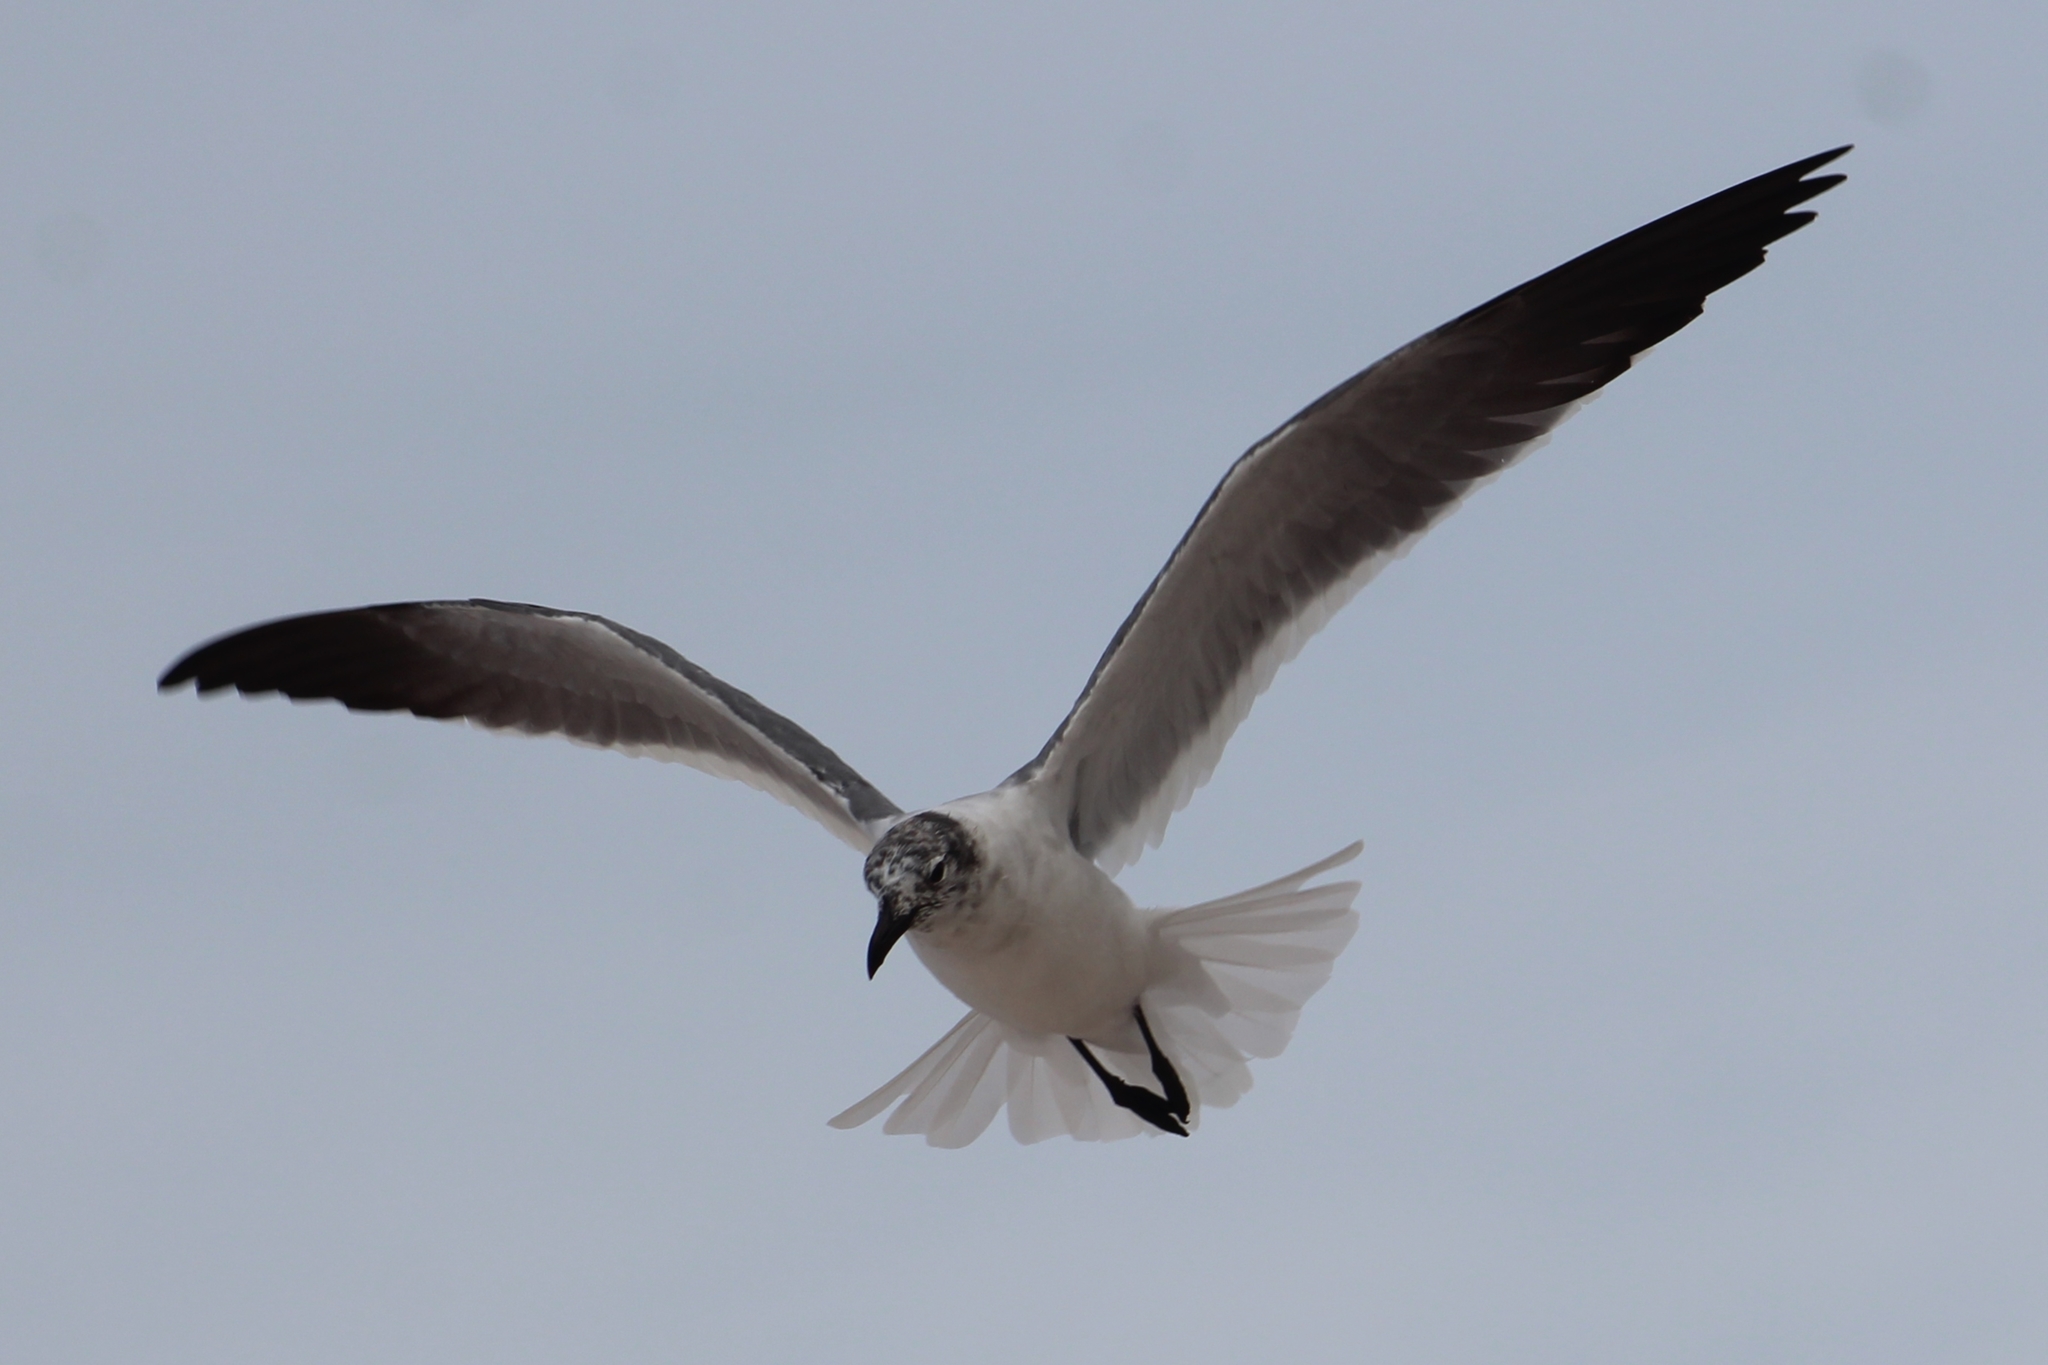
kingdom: Animalia
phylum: Chordata
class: Aves
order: Charadriiformes
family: Laridae
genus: Leucophaeus
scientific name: Leucophaeus atricilla
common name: Laughing gull
